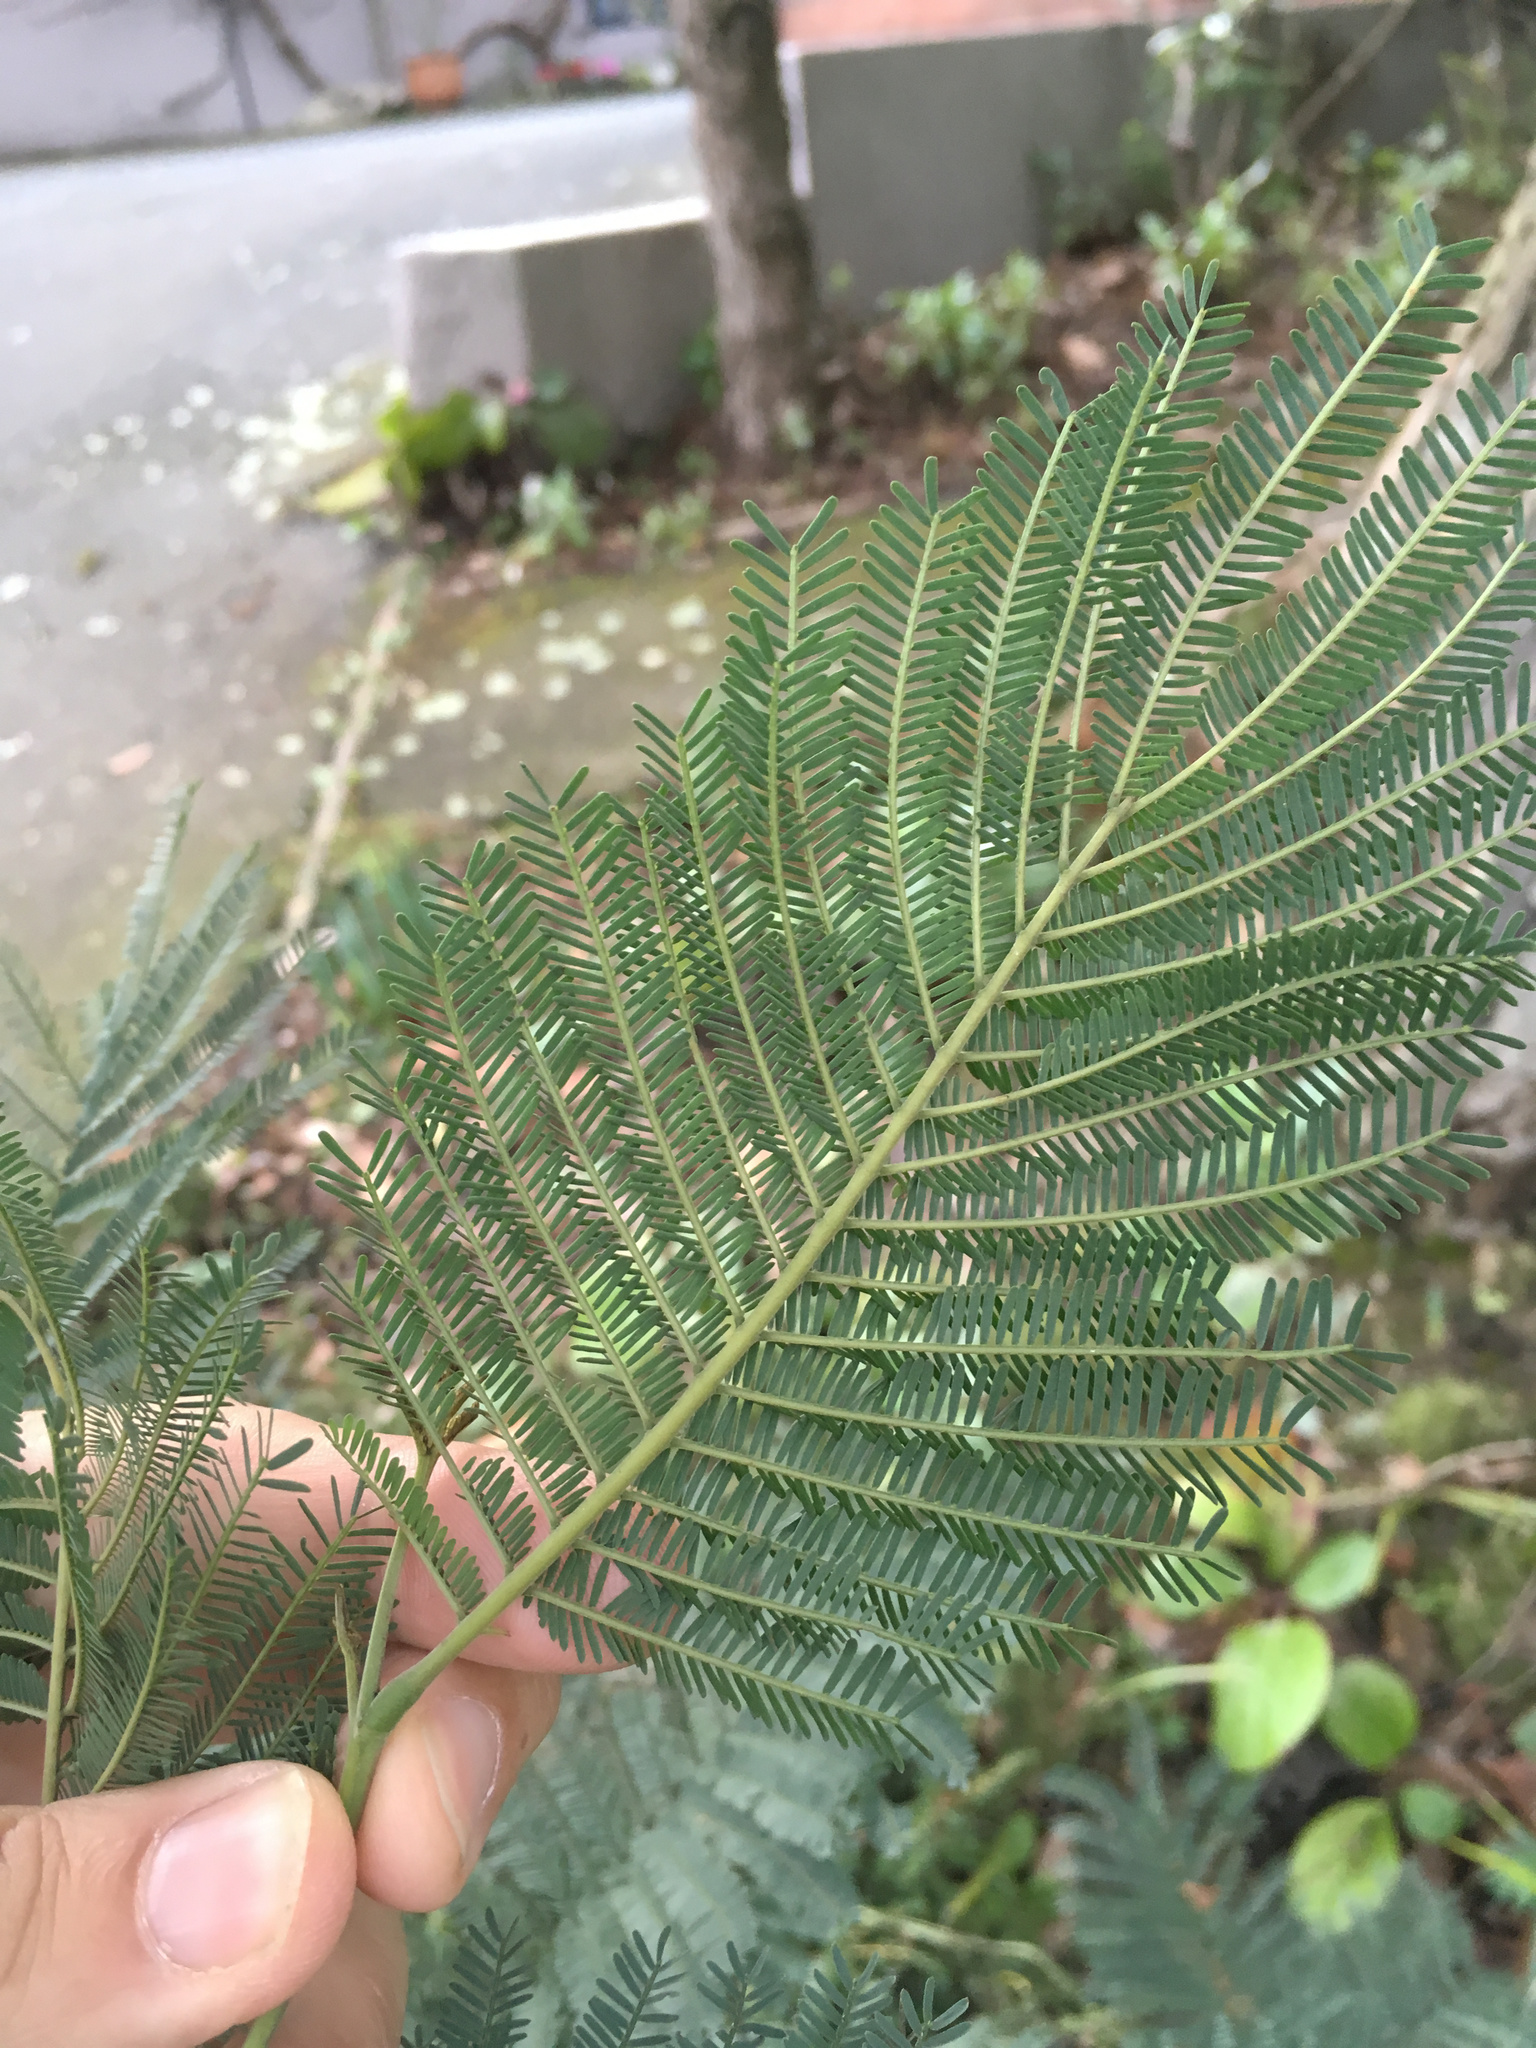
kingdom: Plantae
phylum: Tracheophyta
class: Magnoliopsida
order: Fabales
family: Fabaceae
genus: Acacia
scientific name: Acacia dealbata
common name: Silver wattle
